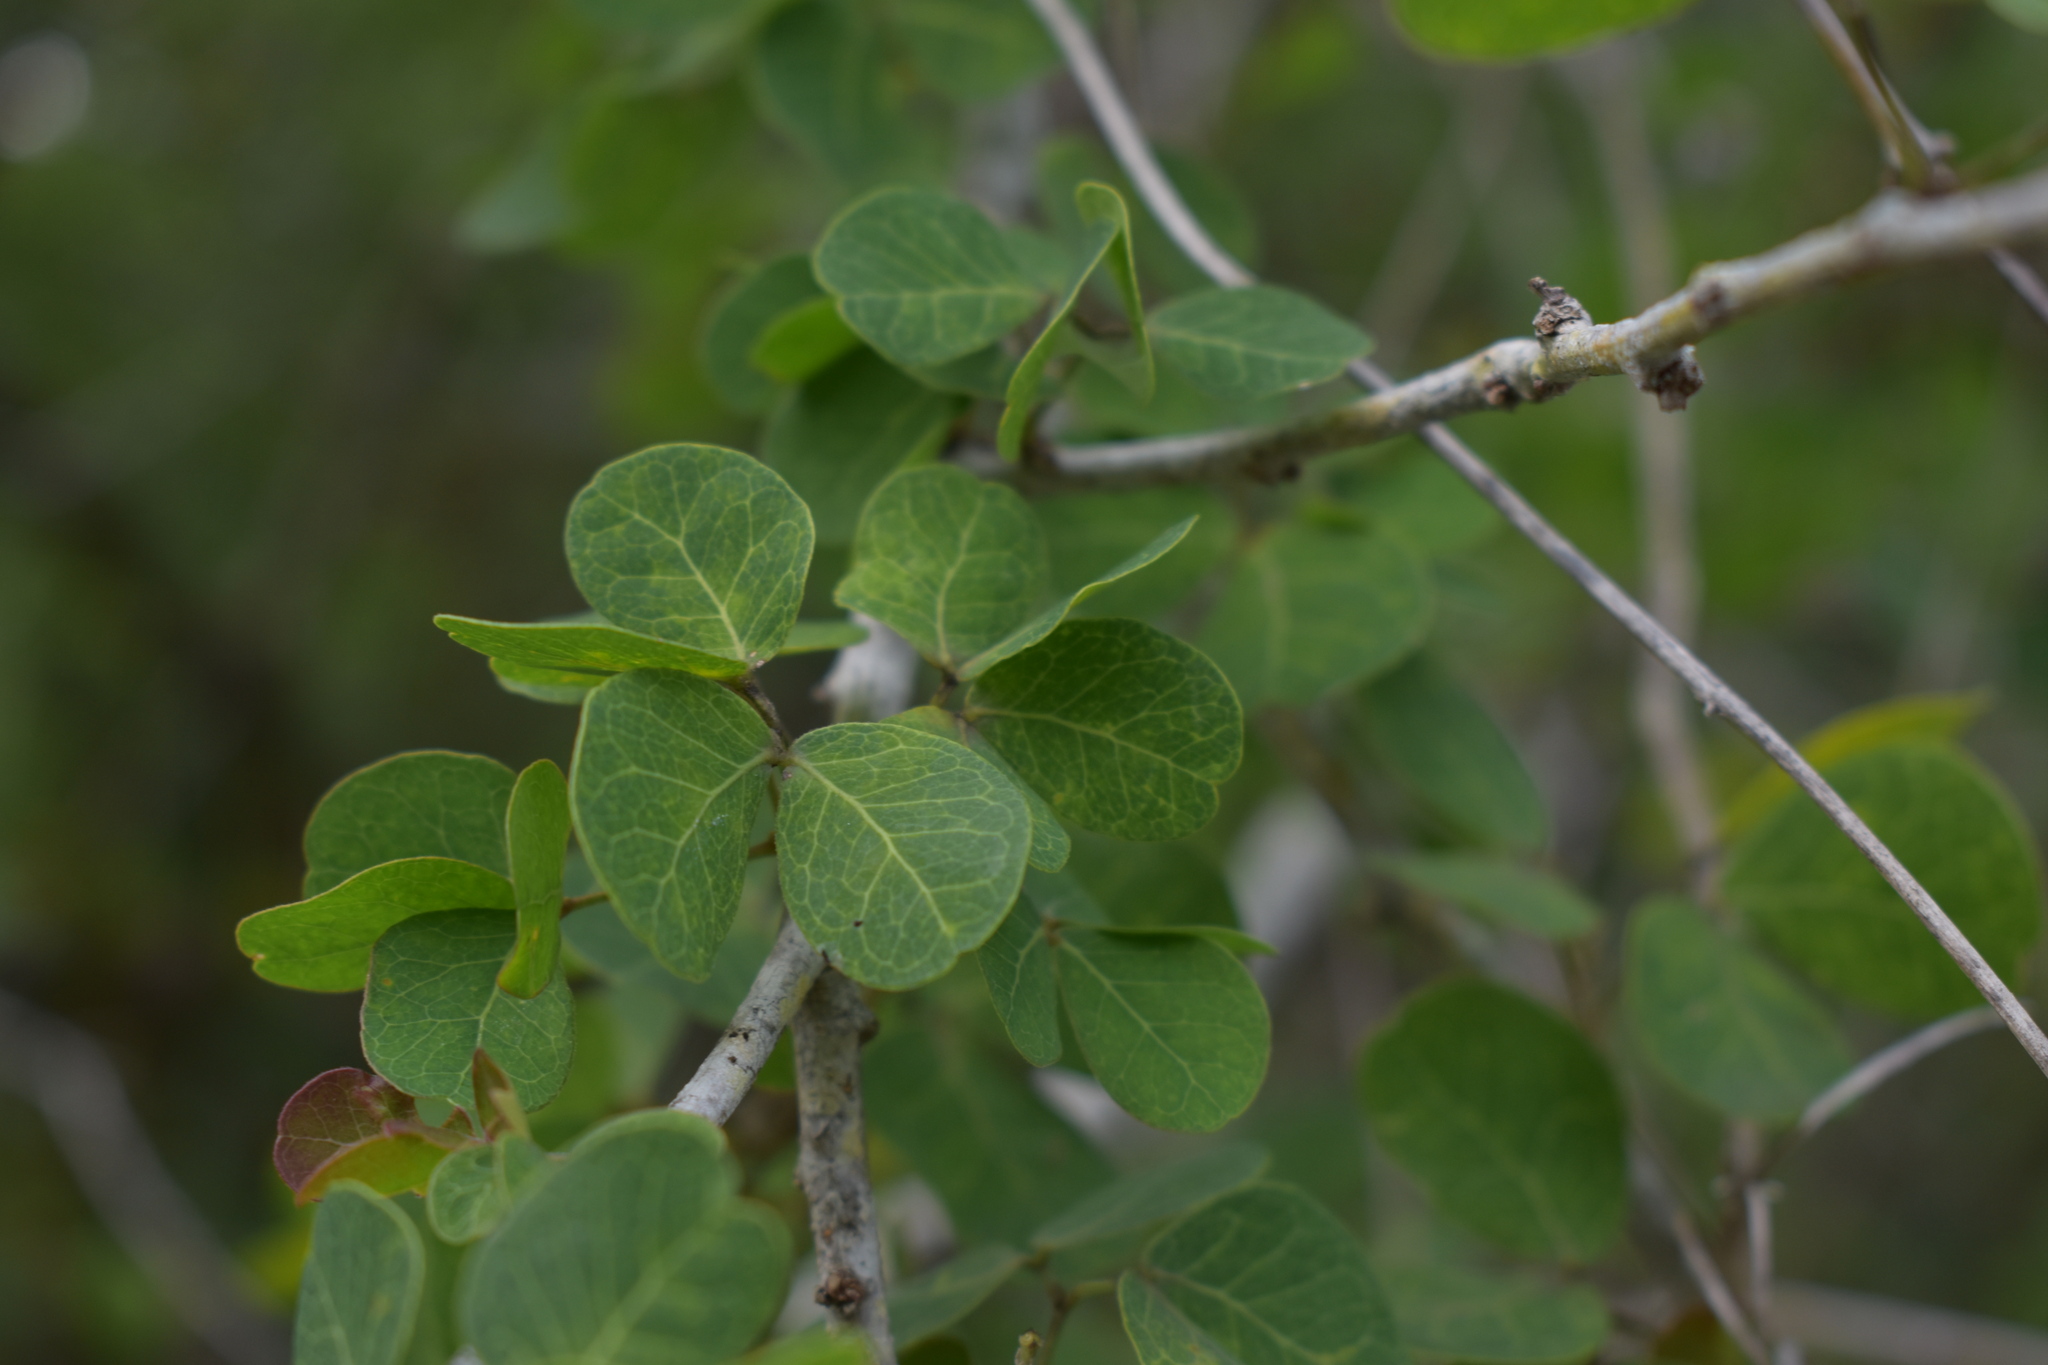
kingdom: Plantae
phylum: Tracheophyta
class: Magnoliopsida
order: Fabales
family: Fabaceae
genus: Pithecellobium
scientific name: Pithecellobium unguis-cati
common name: Cat's-claw
